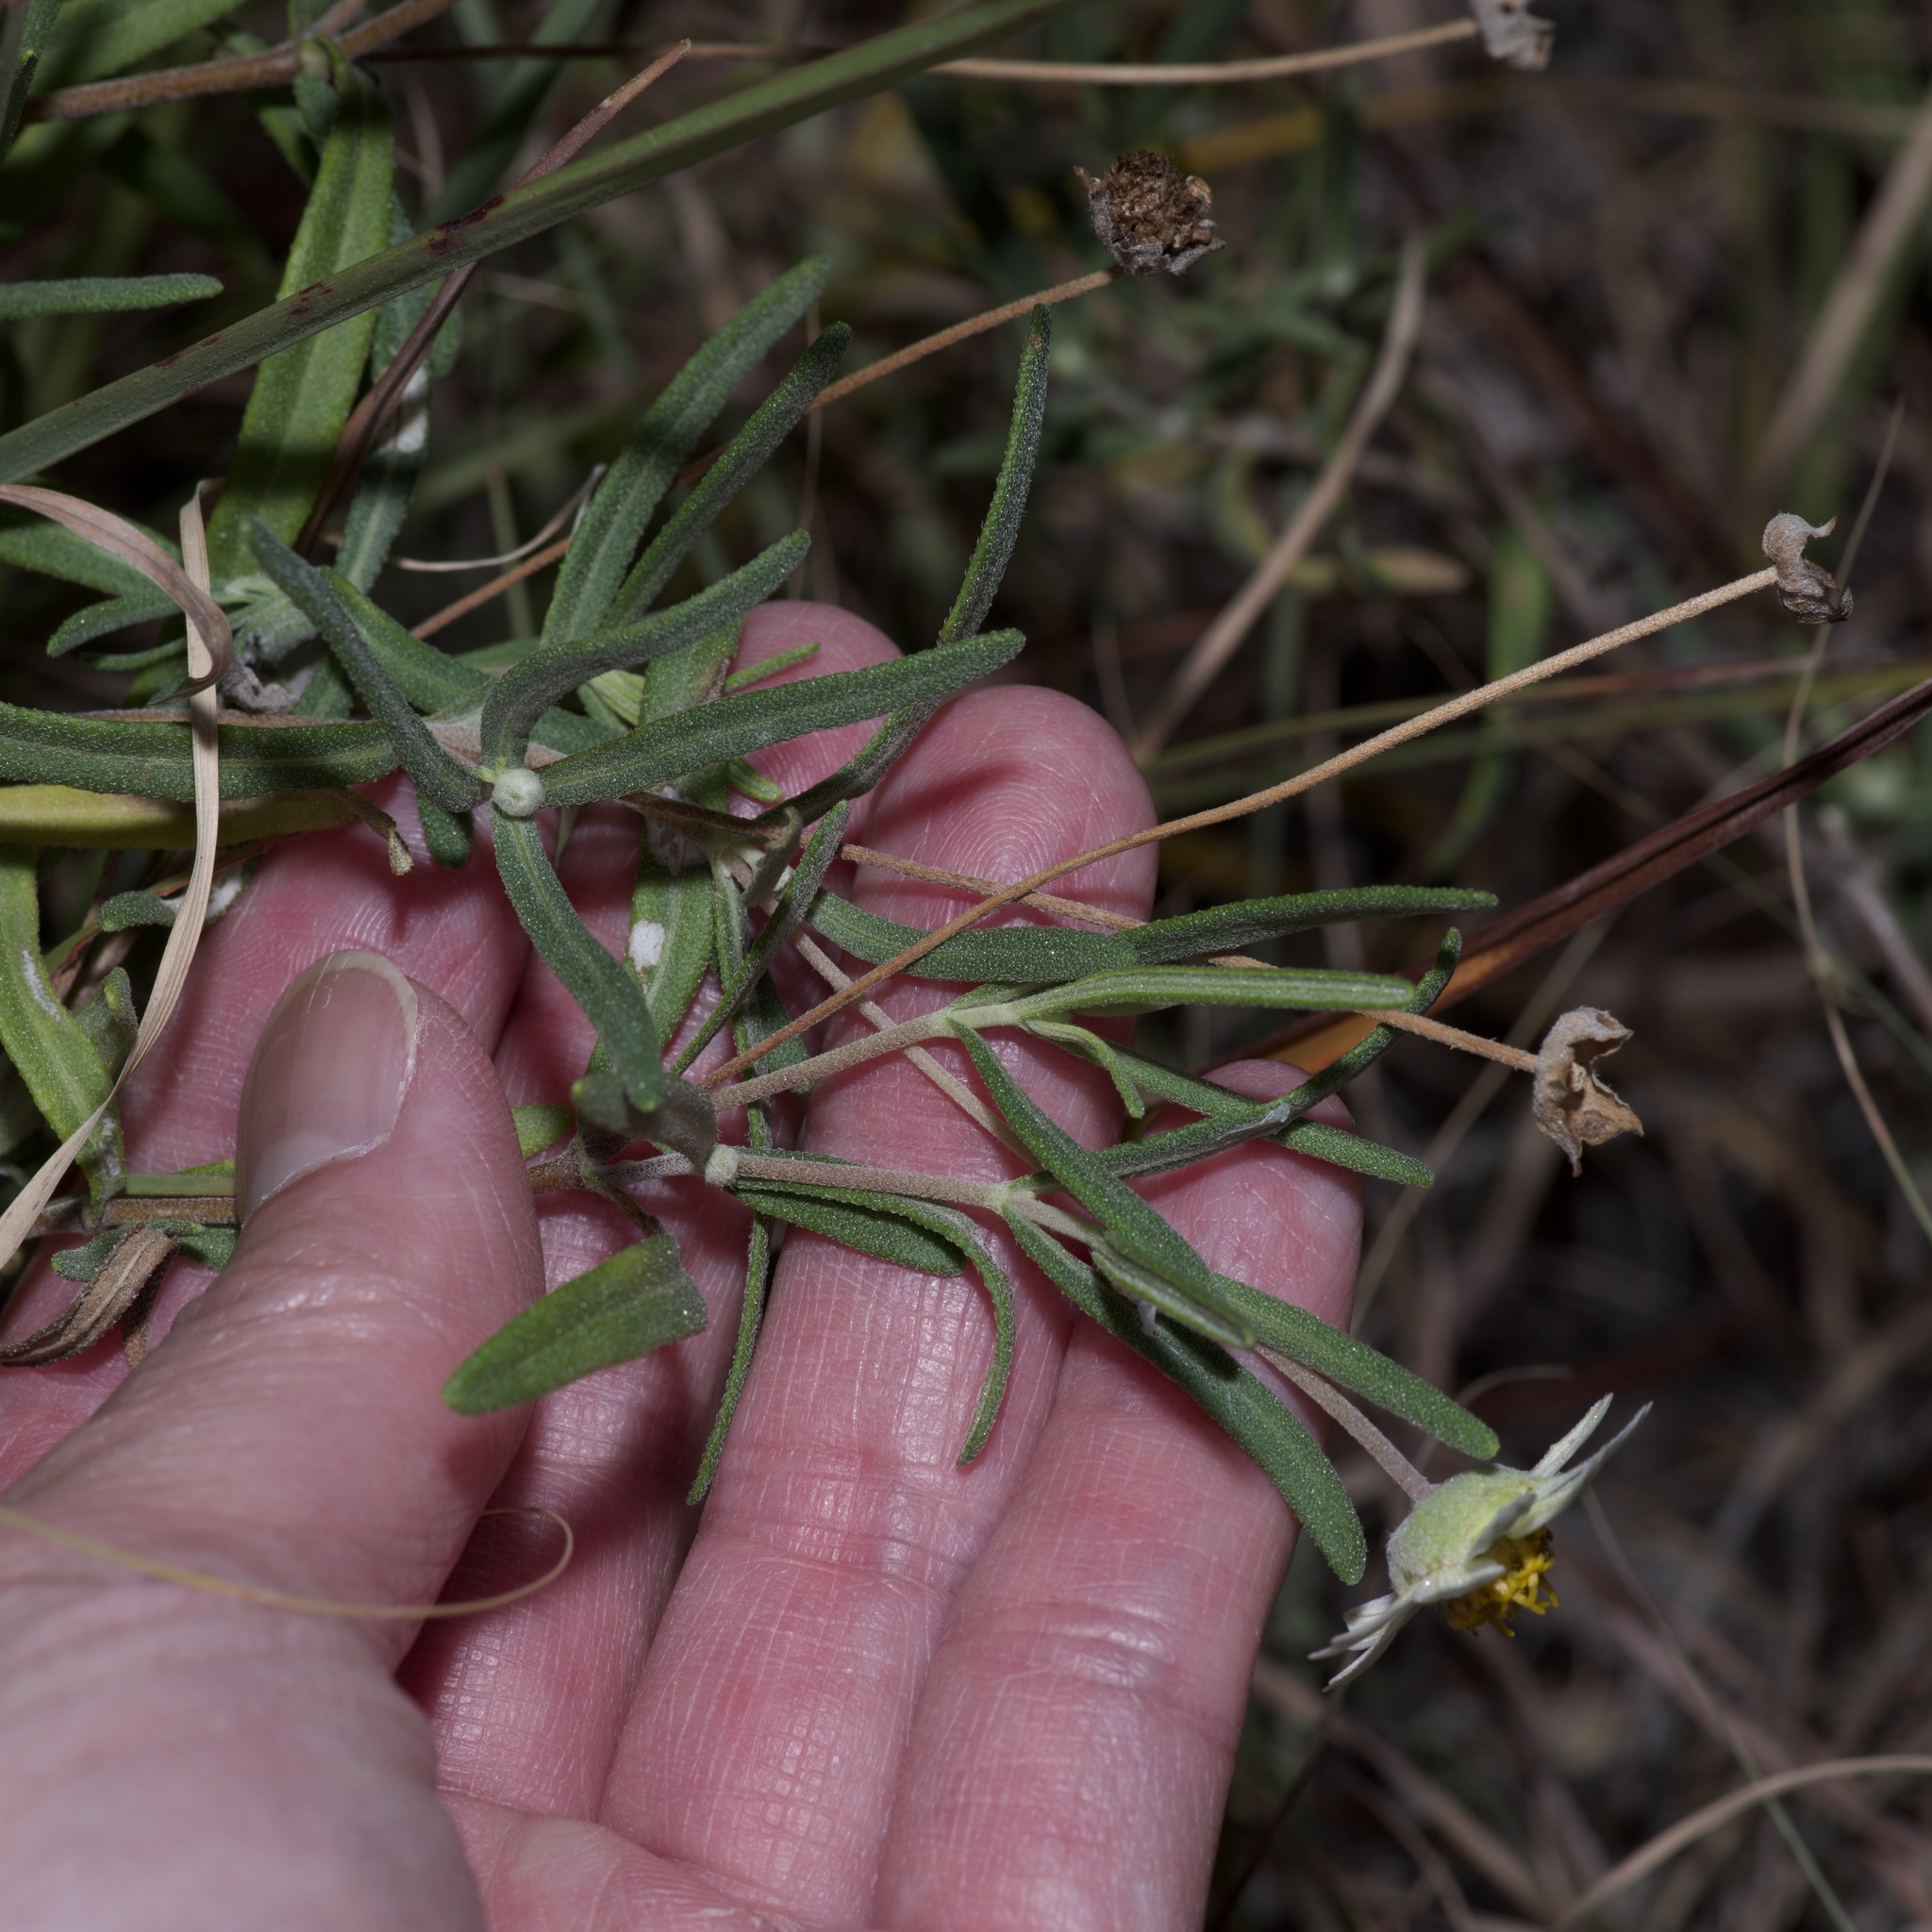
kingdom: Plantae
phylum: Tracheophyta
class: Magnoliopsida
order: Asterales
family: Asteraceae
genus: Melampodium
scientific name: Melampodium leucanthum
